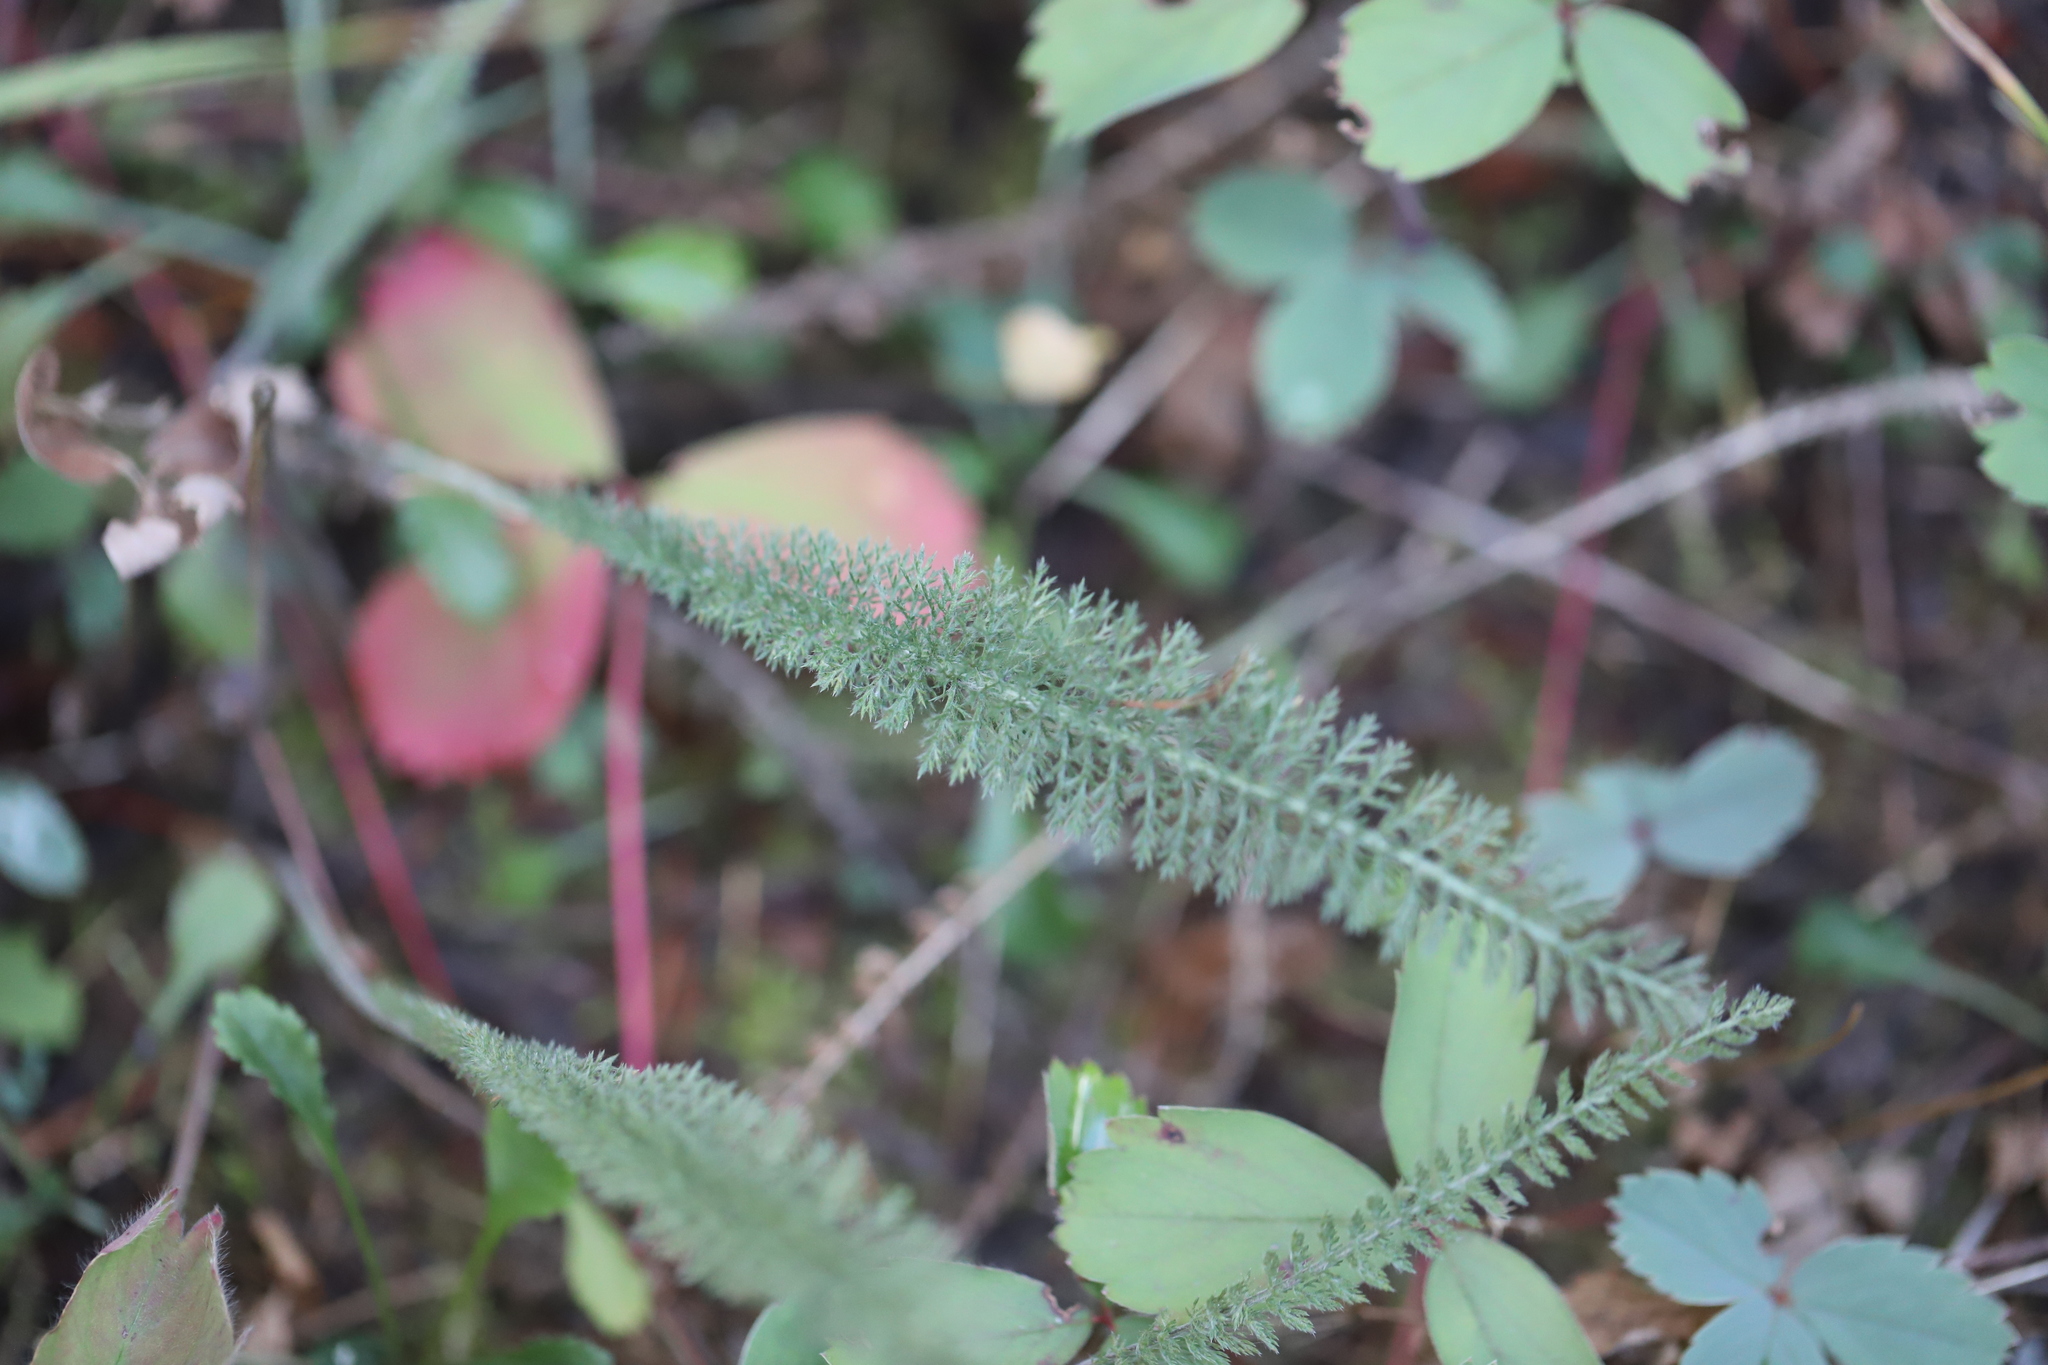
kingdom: Plantae
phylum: Tracheophyta
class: Magnoliopsida
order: Asterales
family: Asteraceae
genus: Achillea
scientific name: Achillea millefolium
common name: Yarrow
